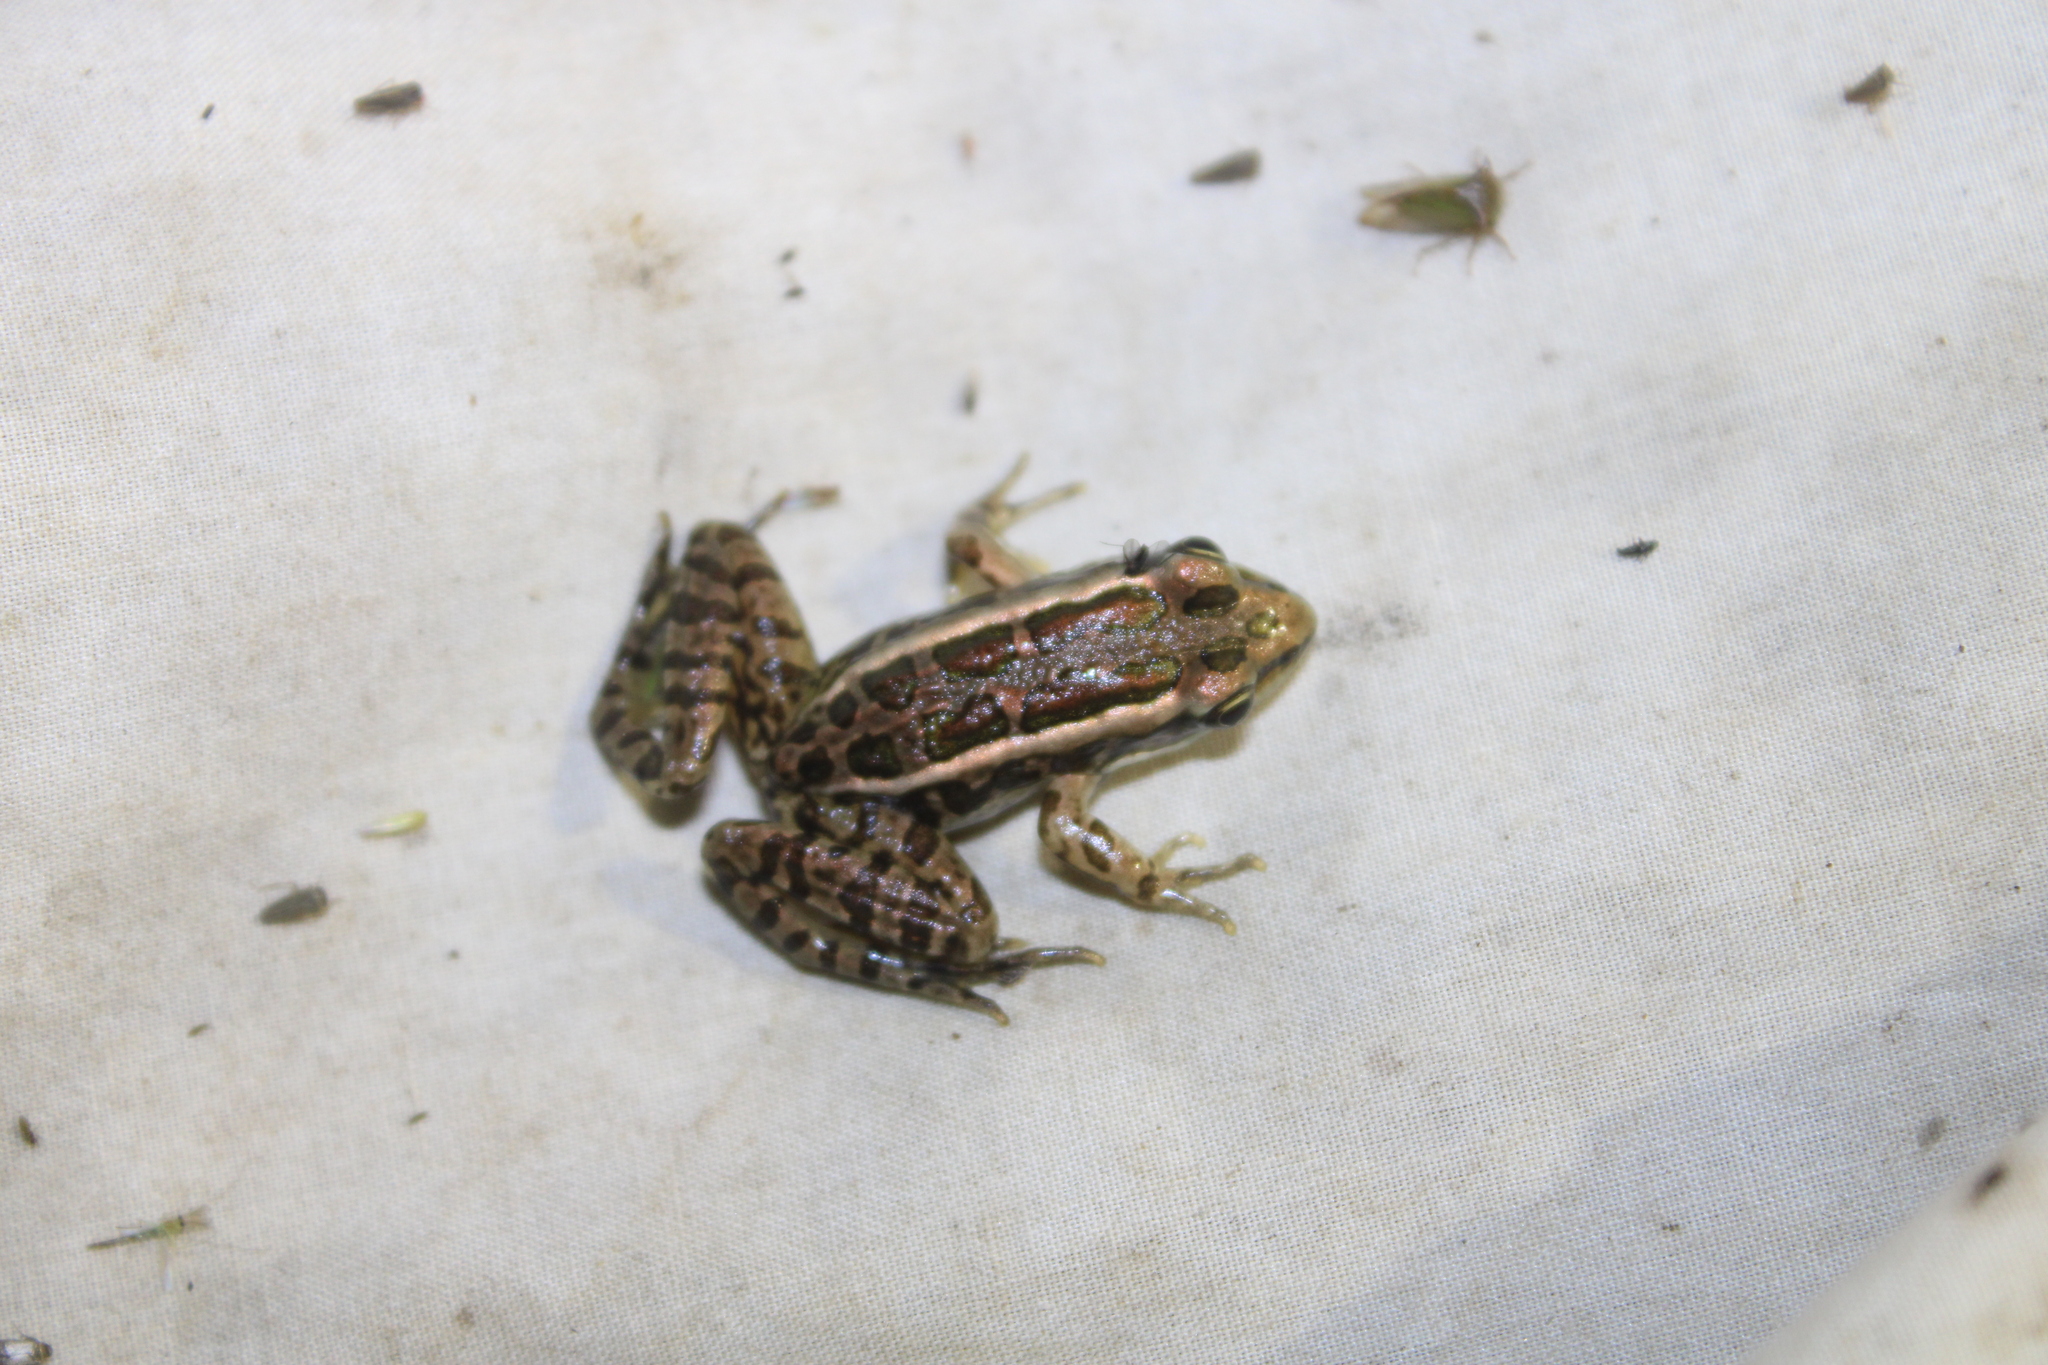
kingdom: Animalia
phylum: Chordata
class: Amphibia
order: Anura
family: Ranidae
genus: Lithobates
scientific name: Lithobates palustris
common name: Pickerel frog
